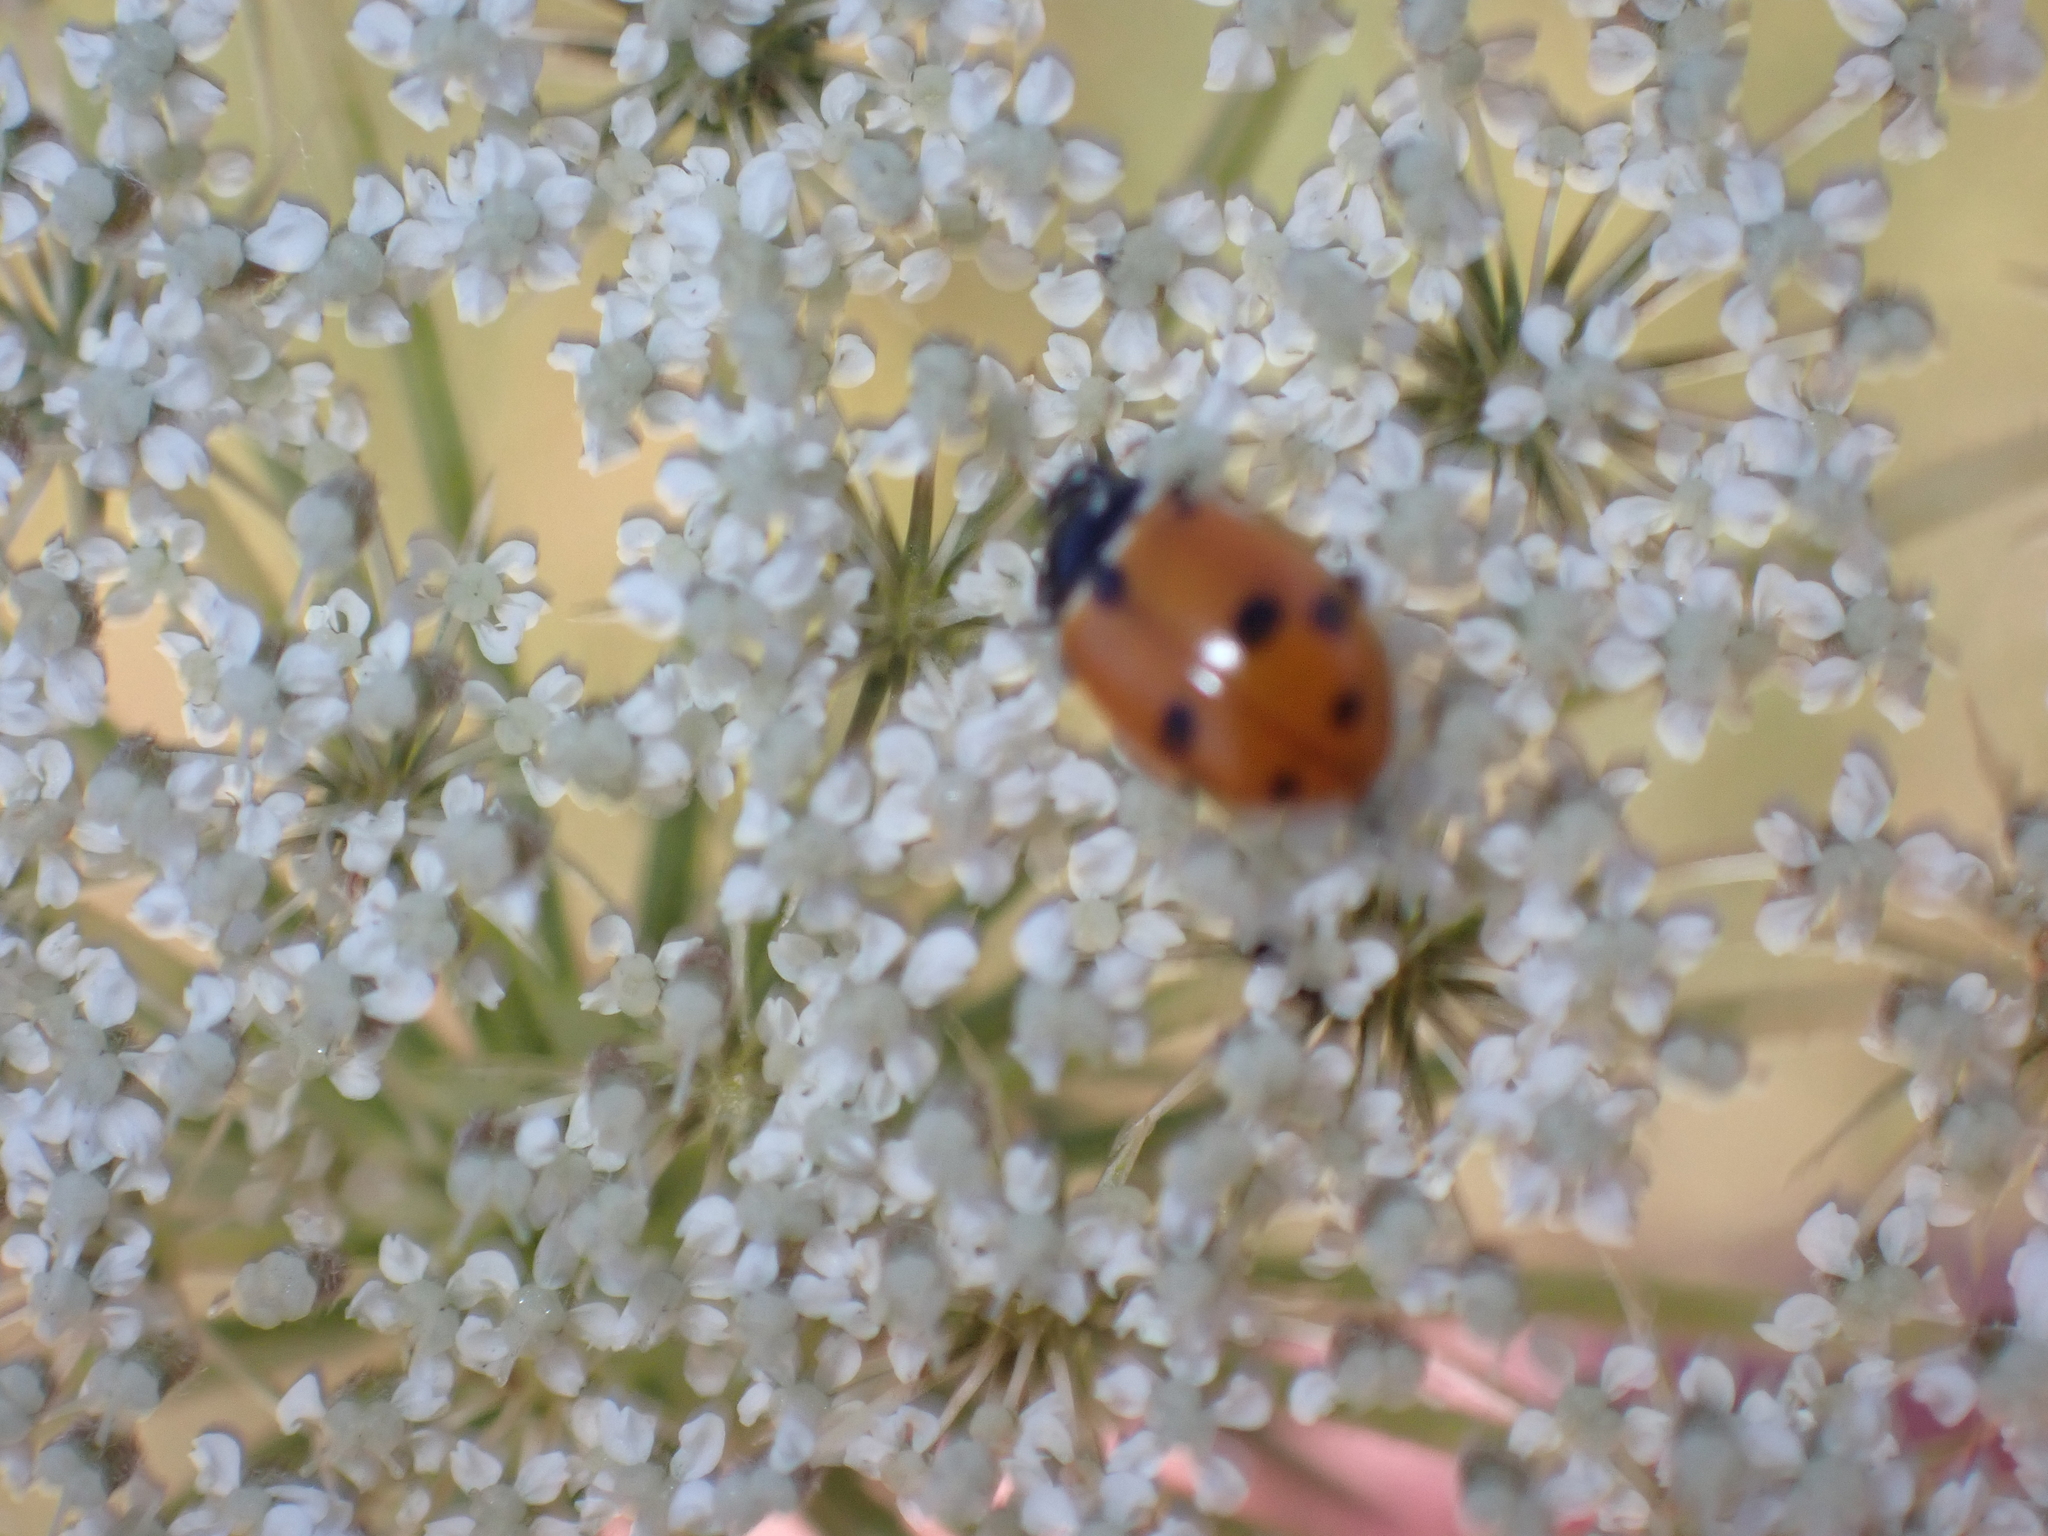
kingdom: Animalia
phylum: Arthropoda
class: Insecta
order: Coleoptera
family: Coccinellidae
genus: Hippodamia
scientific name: Hippodamia variegata
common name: Ladybird beetle
